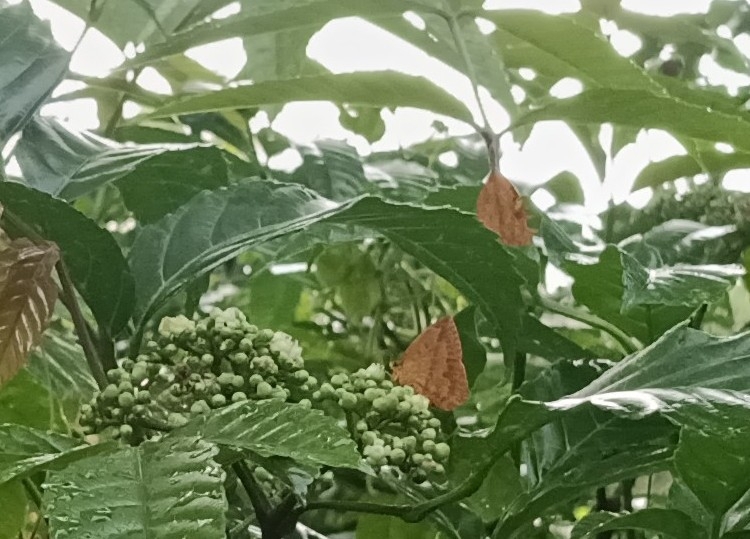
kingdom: Animalia
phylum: Arthropoda
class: Insecta
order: Lepidoptera
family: Callidulidae
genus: Tetragonus
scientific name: Tetragonus catamitus
